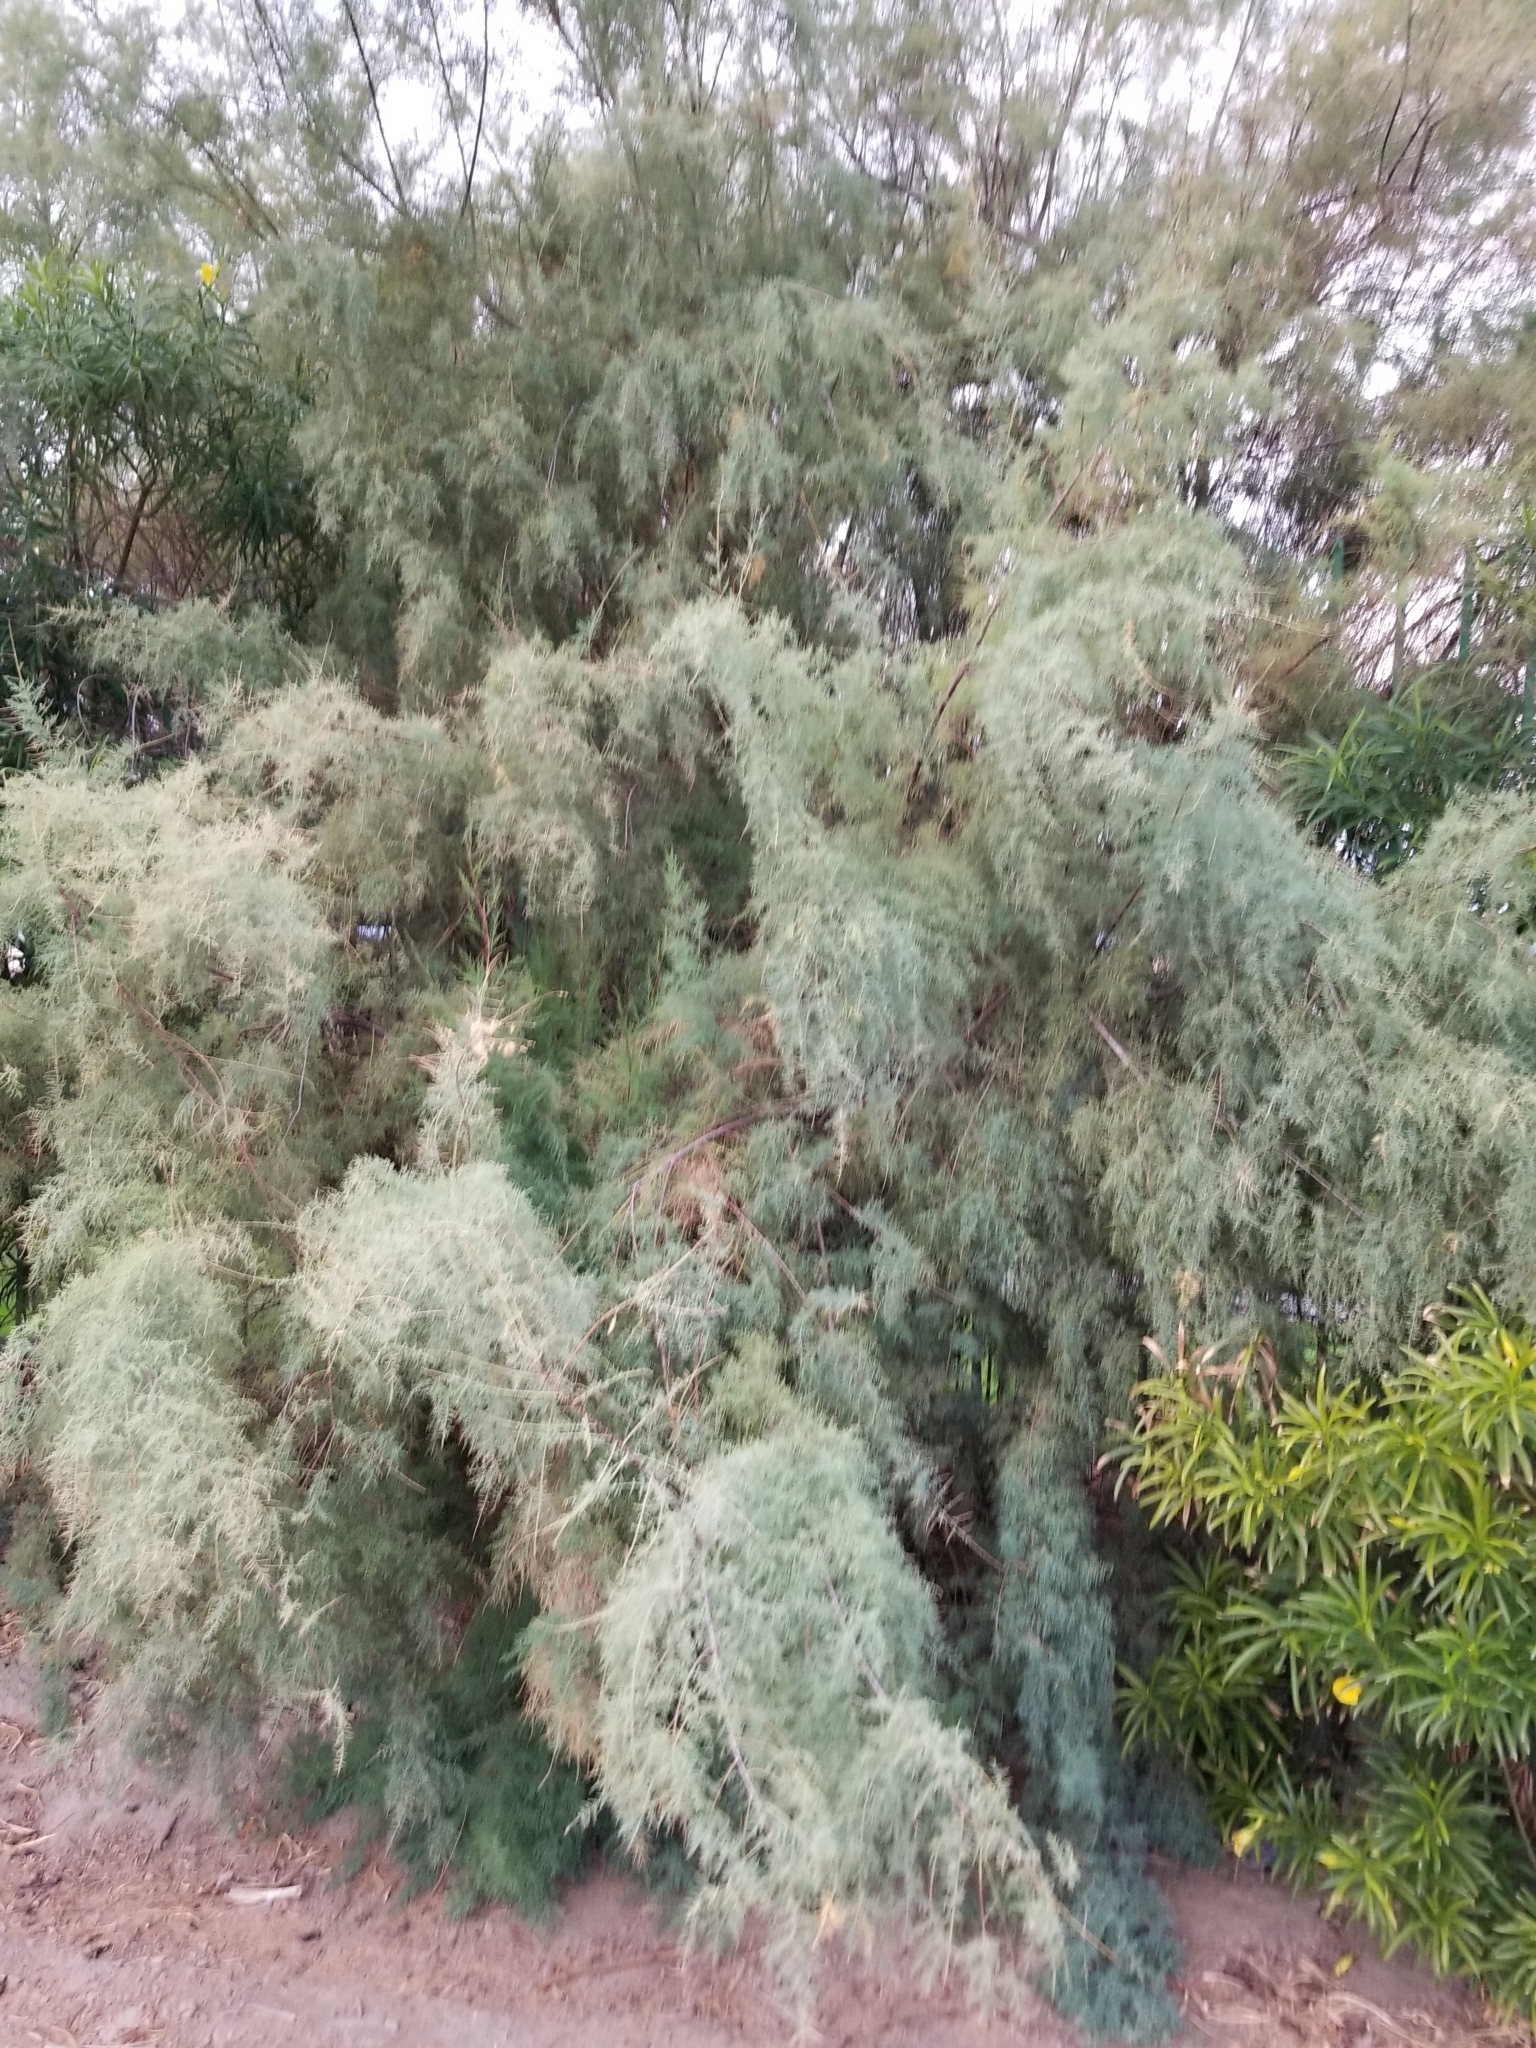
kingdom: Plantae
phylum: Tracheophyta
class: Magnoliopsida
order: Caryophyllales
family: Tamaricaceae
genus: Tamarix
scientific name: Tamarix ramosissima
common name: Pink tamarisk
